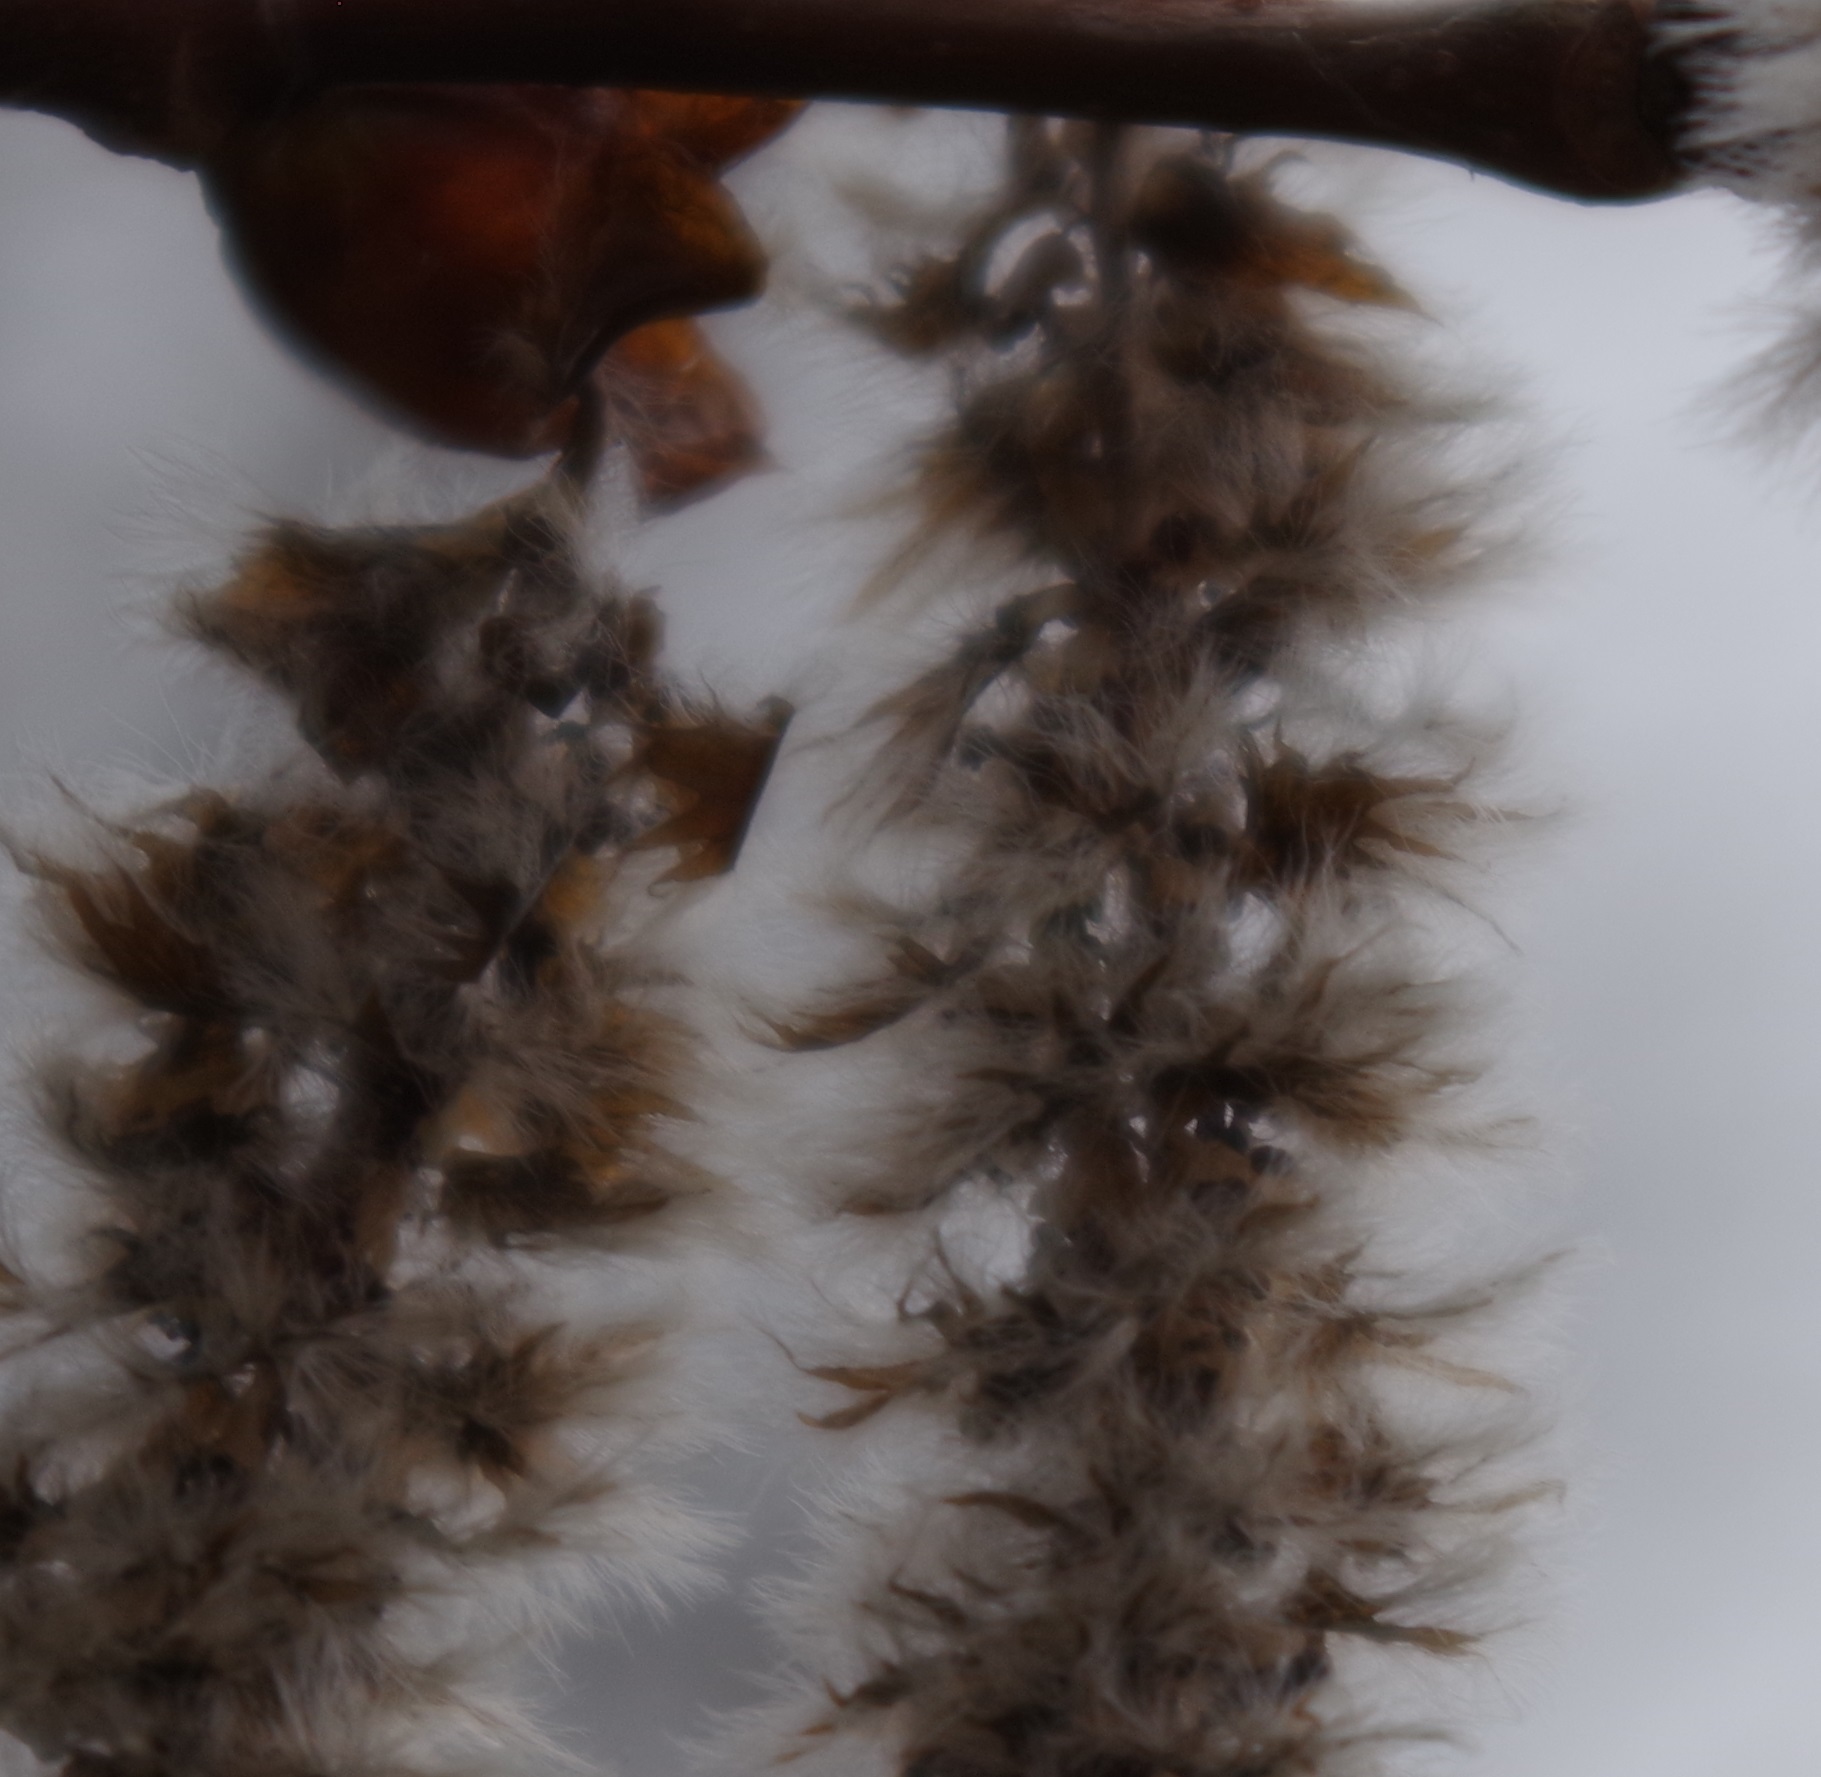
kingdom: Plantae
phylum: Tracheophyta
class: Magnoliopsida
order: Malpighiales
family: Salicaceae
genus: Populus
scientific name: Populus tremula
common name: European aspen
